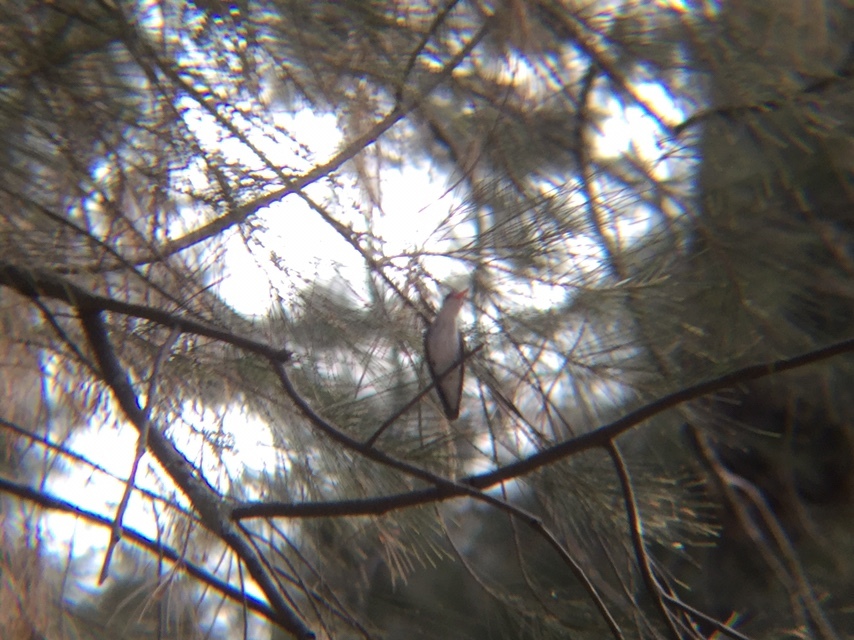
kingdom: Animalia
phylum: Chordata
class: Aves
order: Apodiformes
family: Trochilidae
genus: Leucolia
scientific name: Leucolia violiceps
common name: Violet-crowned hummingbird
